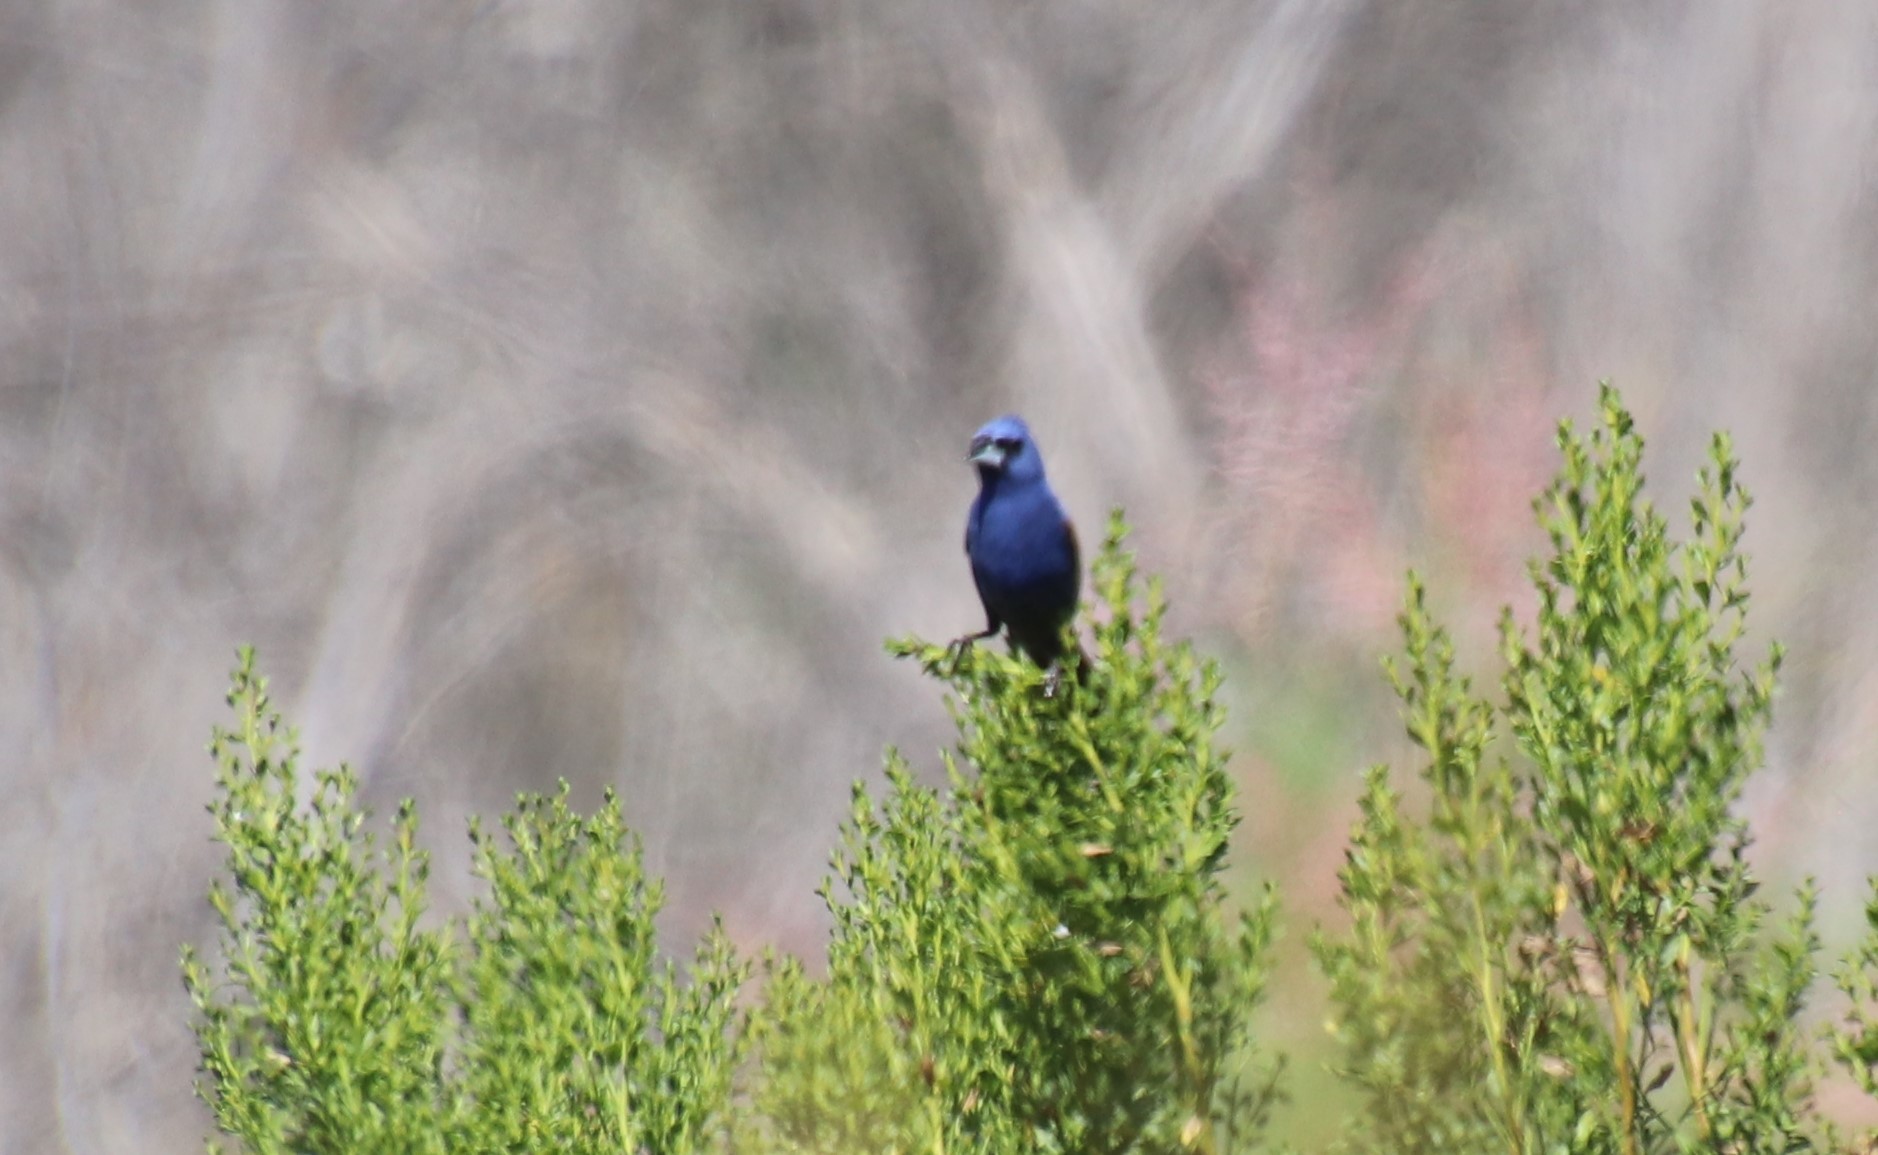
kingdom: Animalia
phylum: Chordata
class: Aves
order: Passeriformes
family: Cardinalidae
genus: Passerina
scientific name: Passerina caerulea
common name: Blue grosbeak
